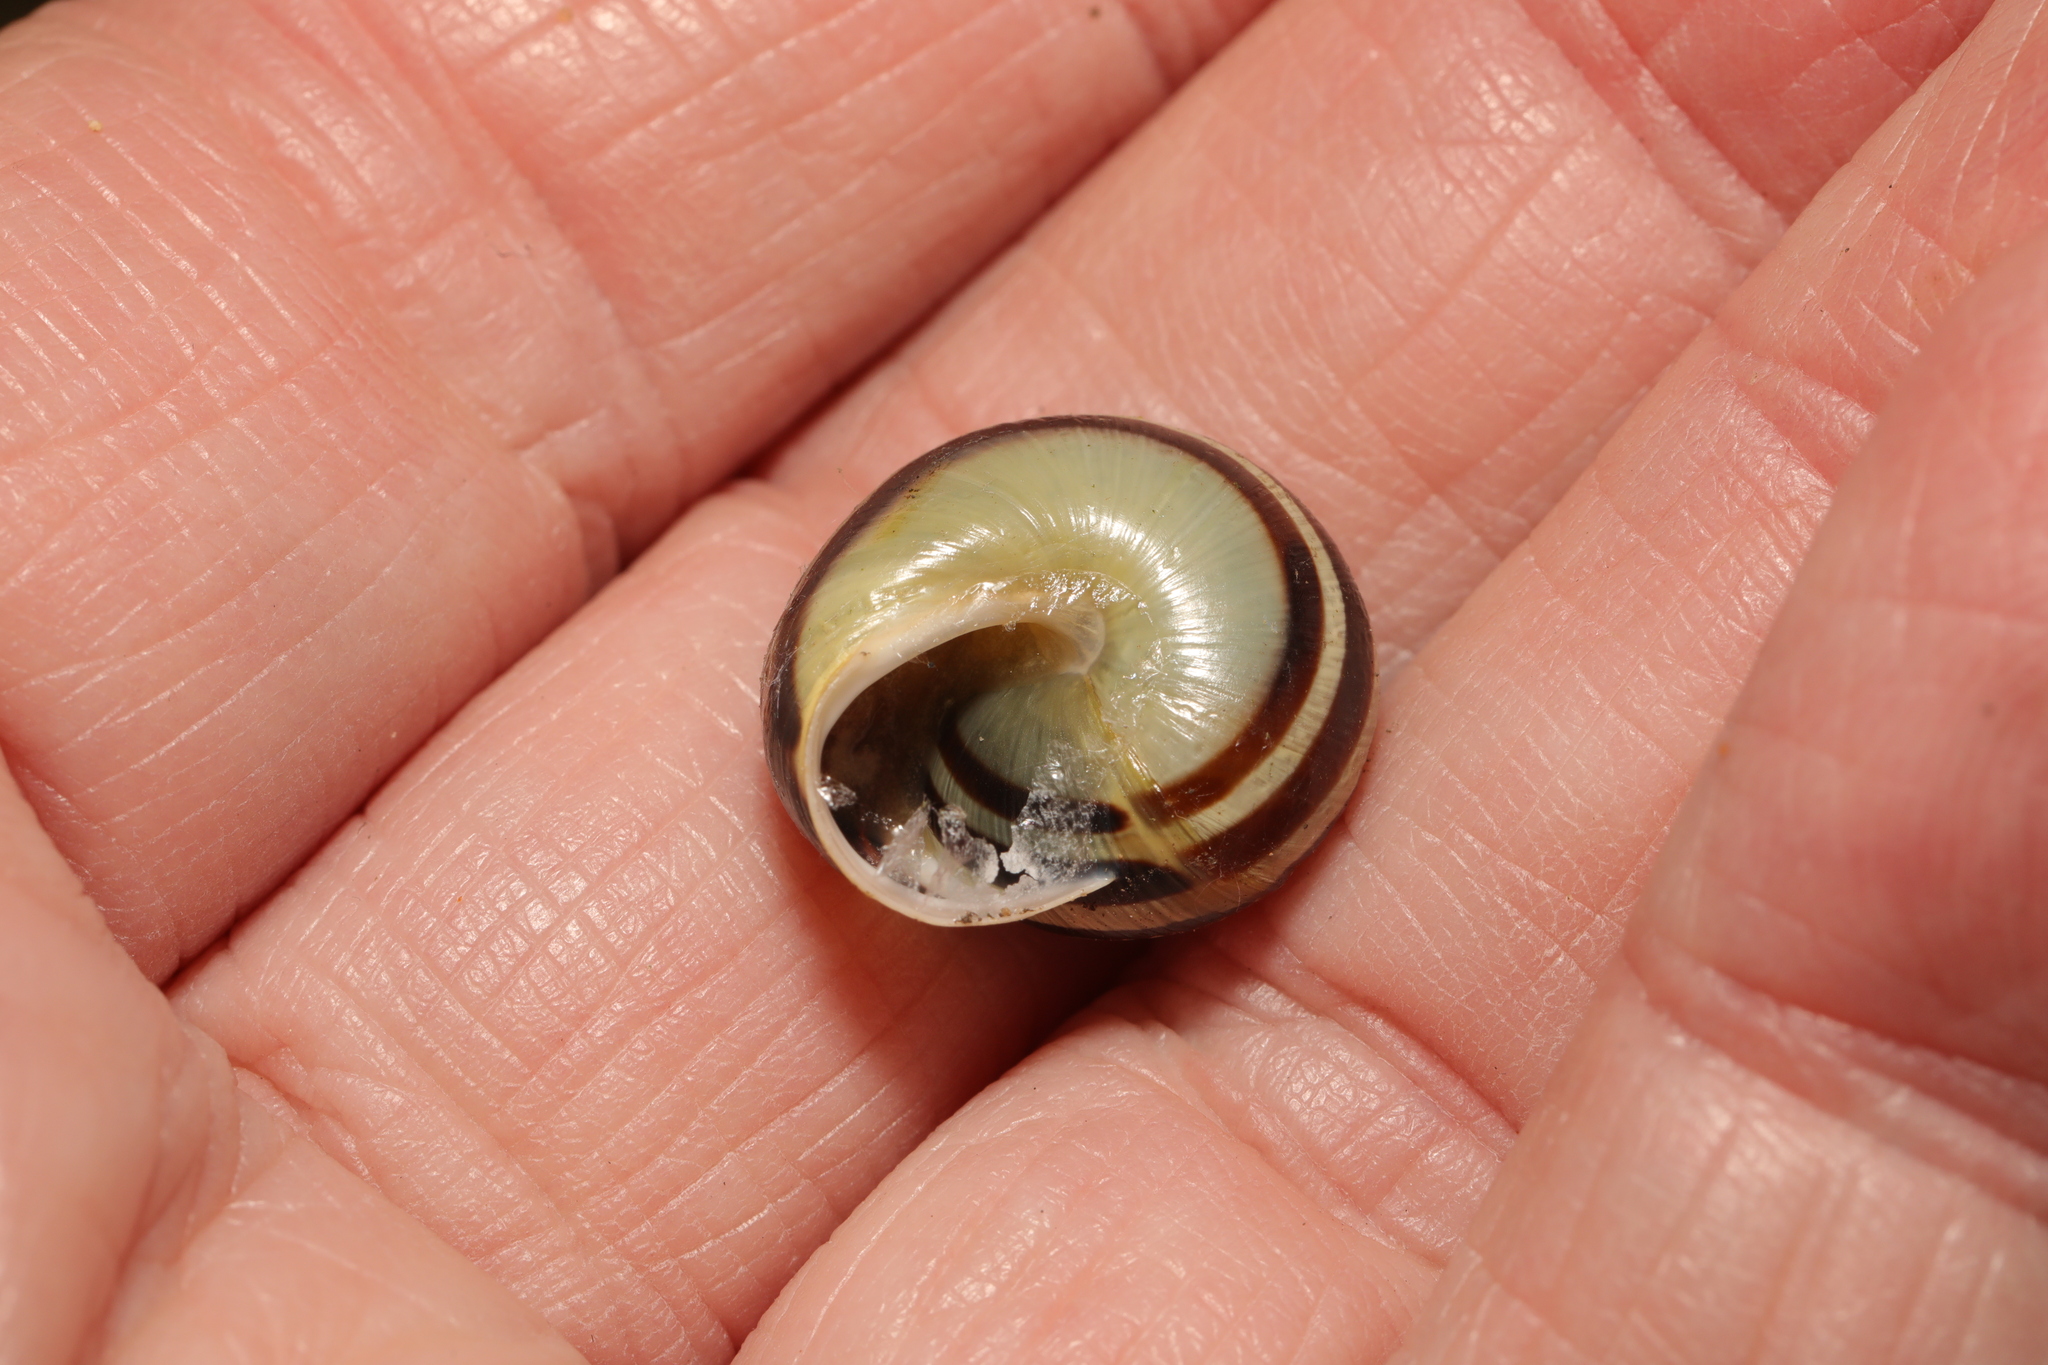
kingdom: Animalia
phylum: Mollusca
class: Gastropoda
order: Stylommatophora
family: Helicidae
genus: Cepaea
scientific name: Cepaea hortensis
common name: White-lip gardensnail
